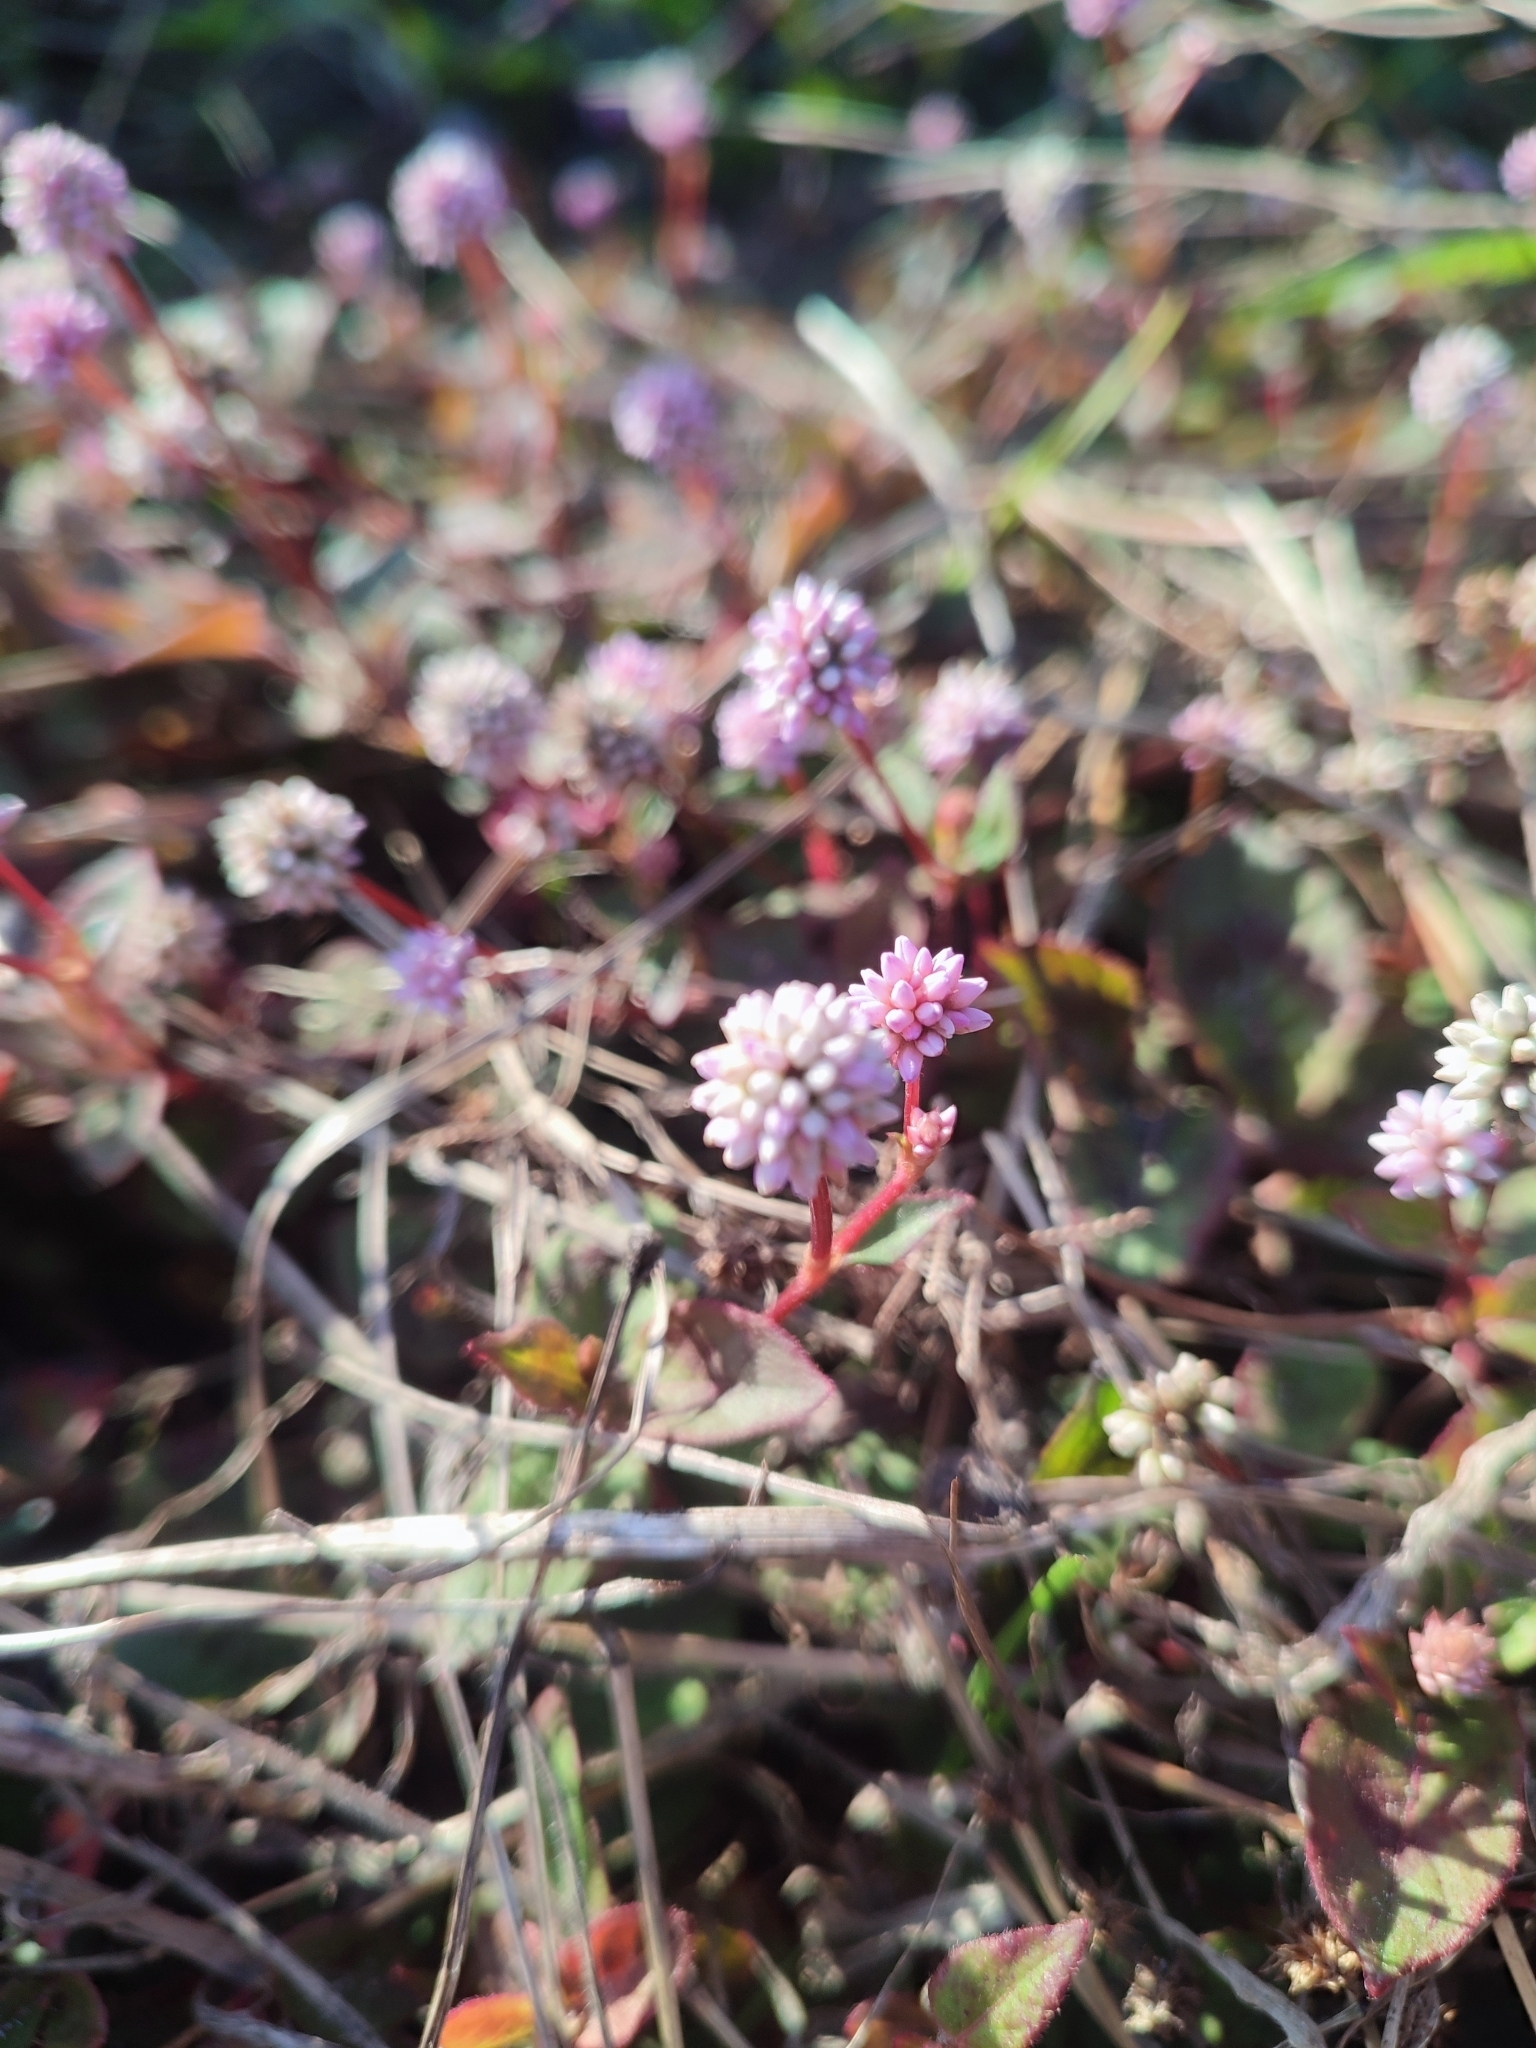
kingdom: Plantae
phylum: Tracheophyta
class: Magnoliopsida
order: Caryophyllales
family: Polygonaceae
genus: Persicaria
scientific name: Persicaria capitata
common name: Pinkhead smartweed
